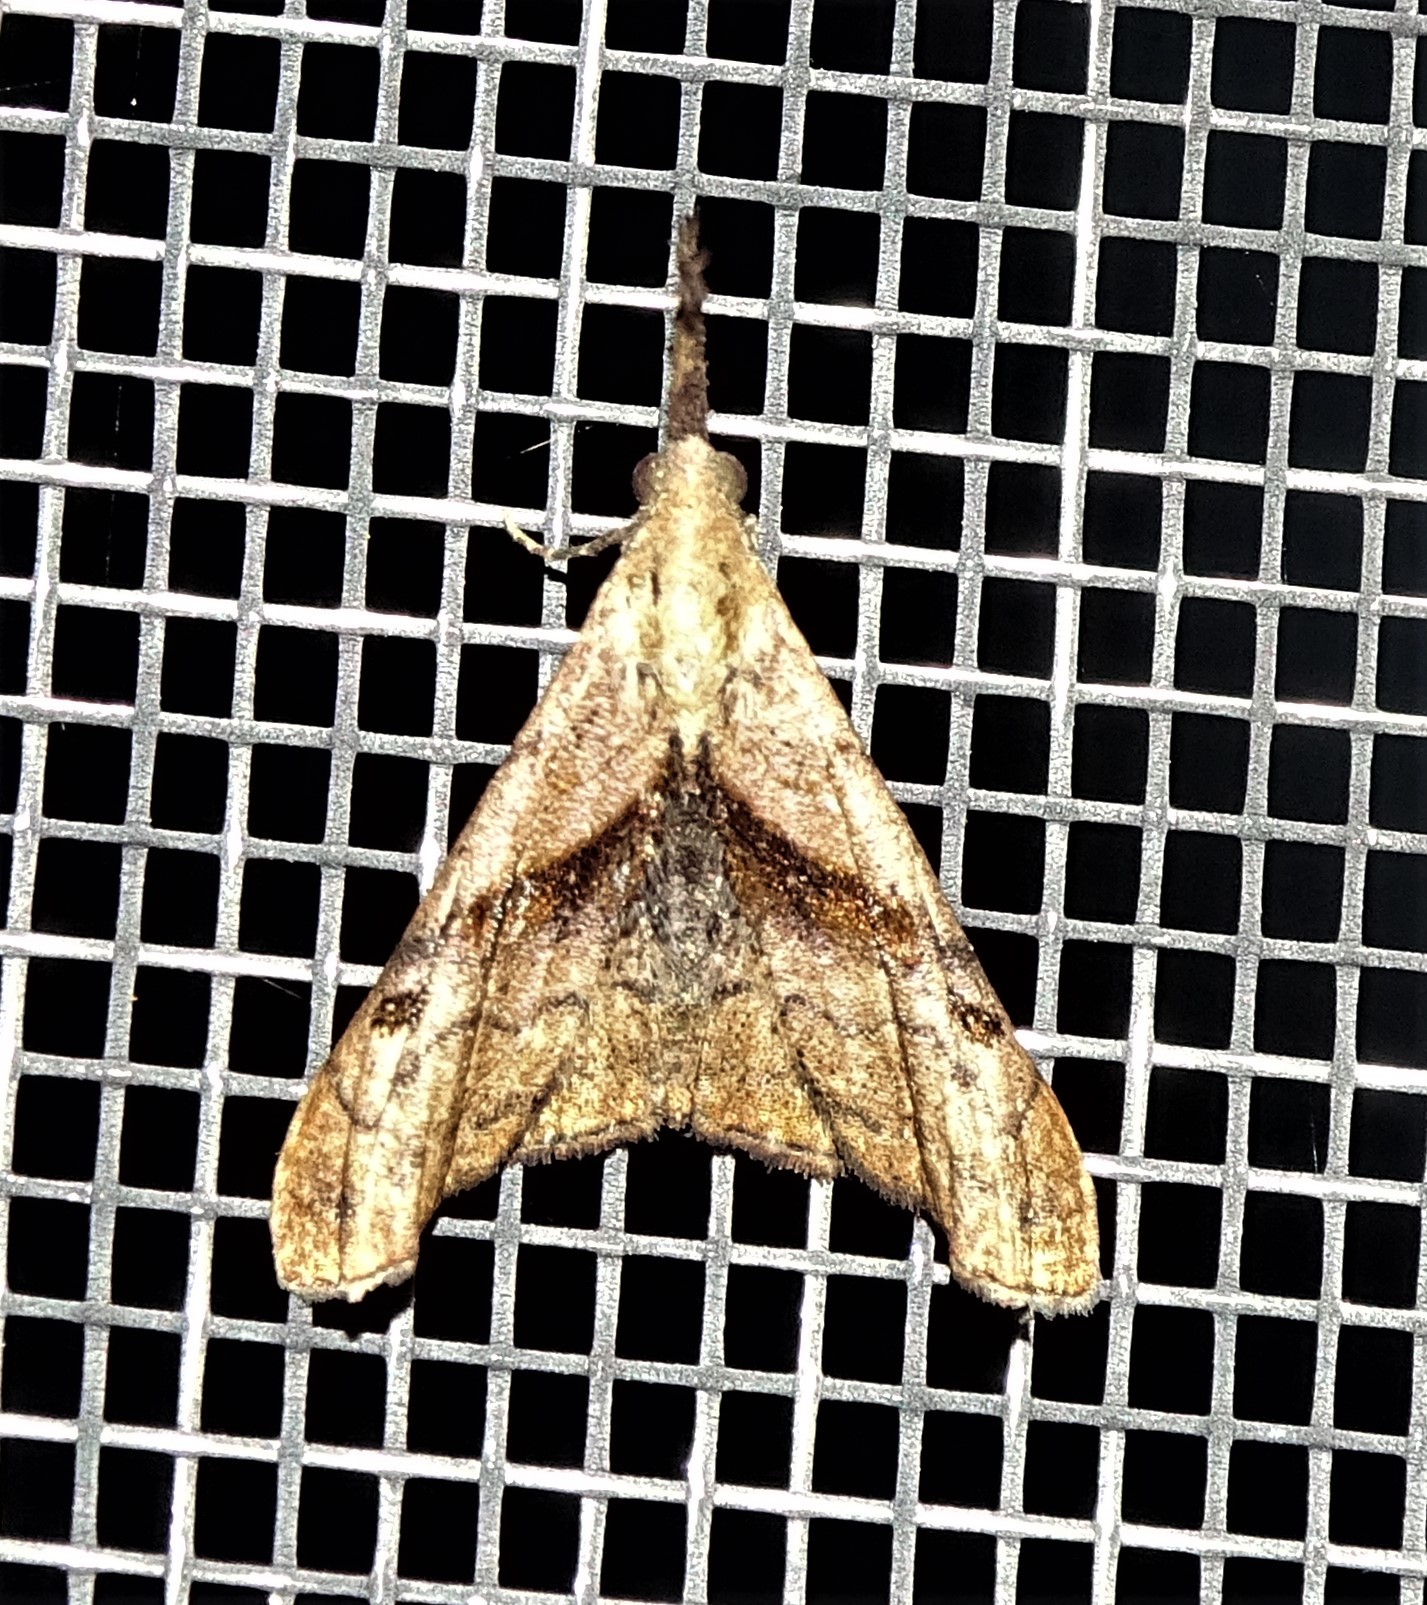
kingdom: Animalia
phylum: Arthropoda
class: Insecta
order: Lepidoptera
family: Erebidae
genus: Palthis
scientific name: Palthis angulalis
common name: Dark-spotted palthis moth
